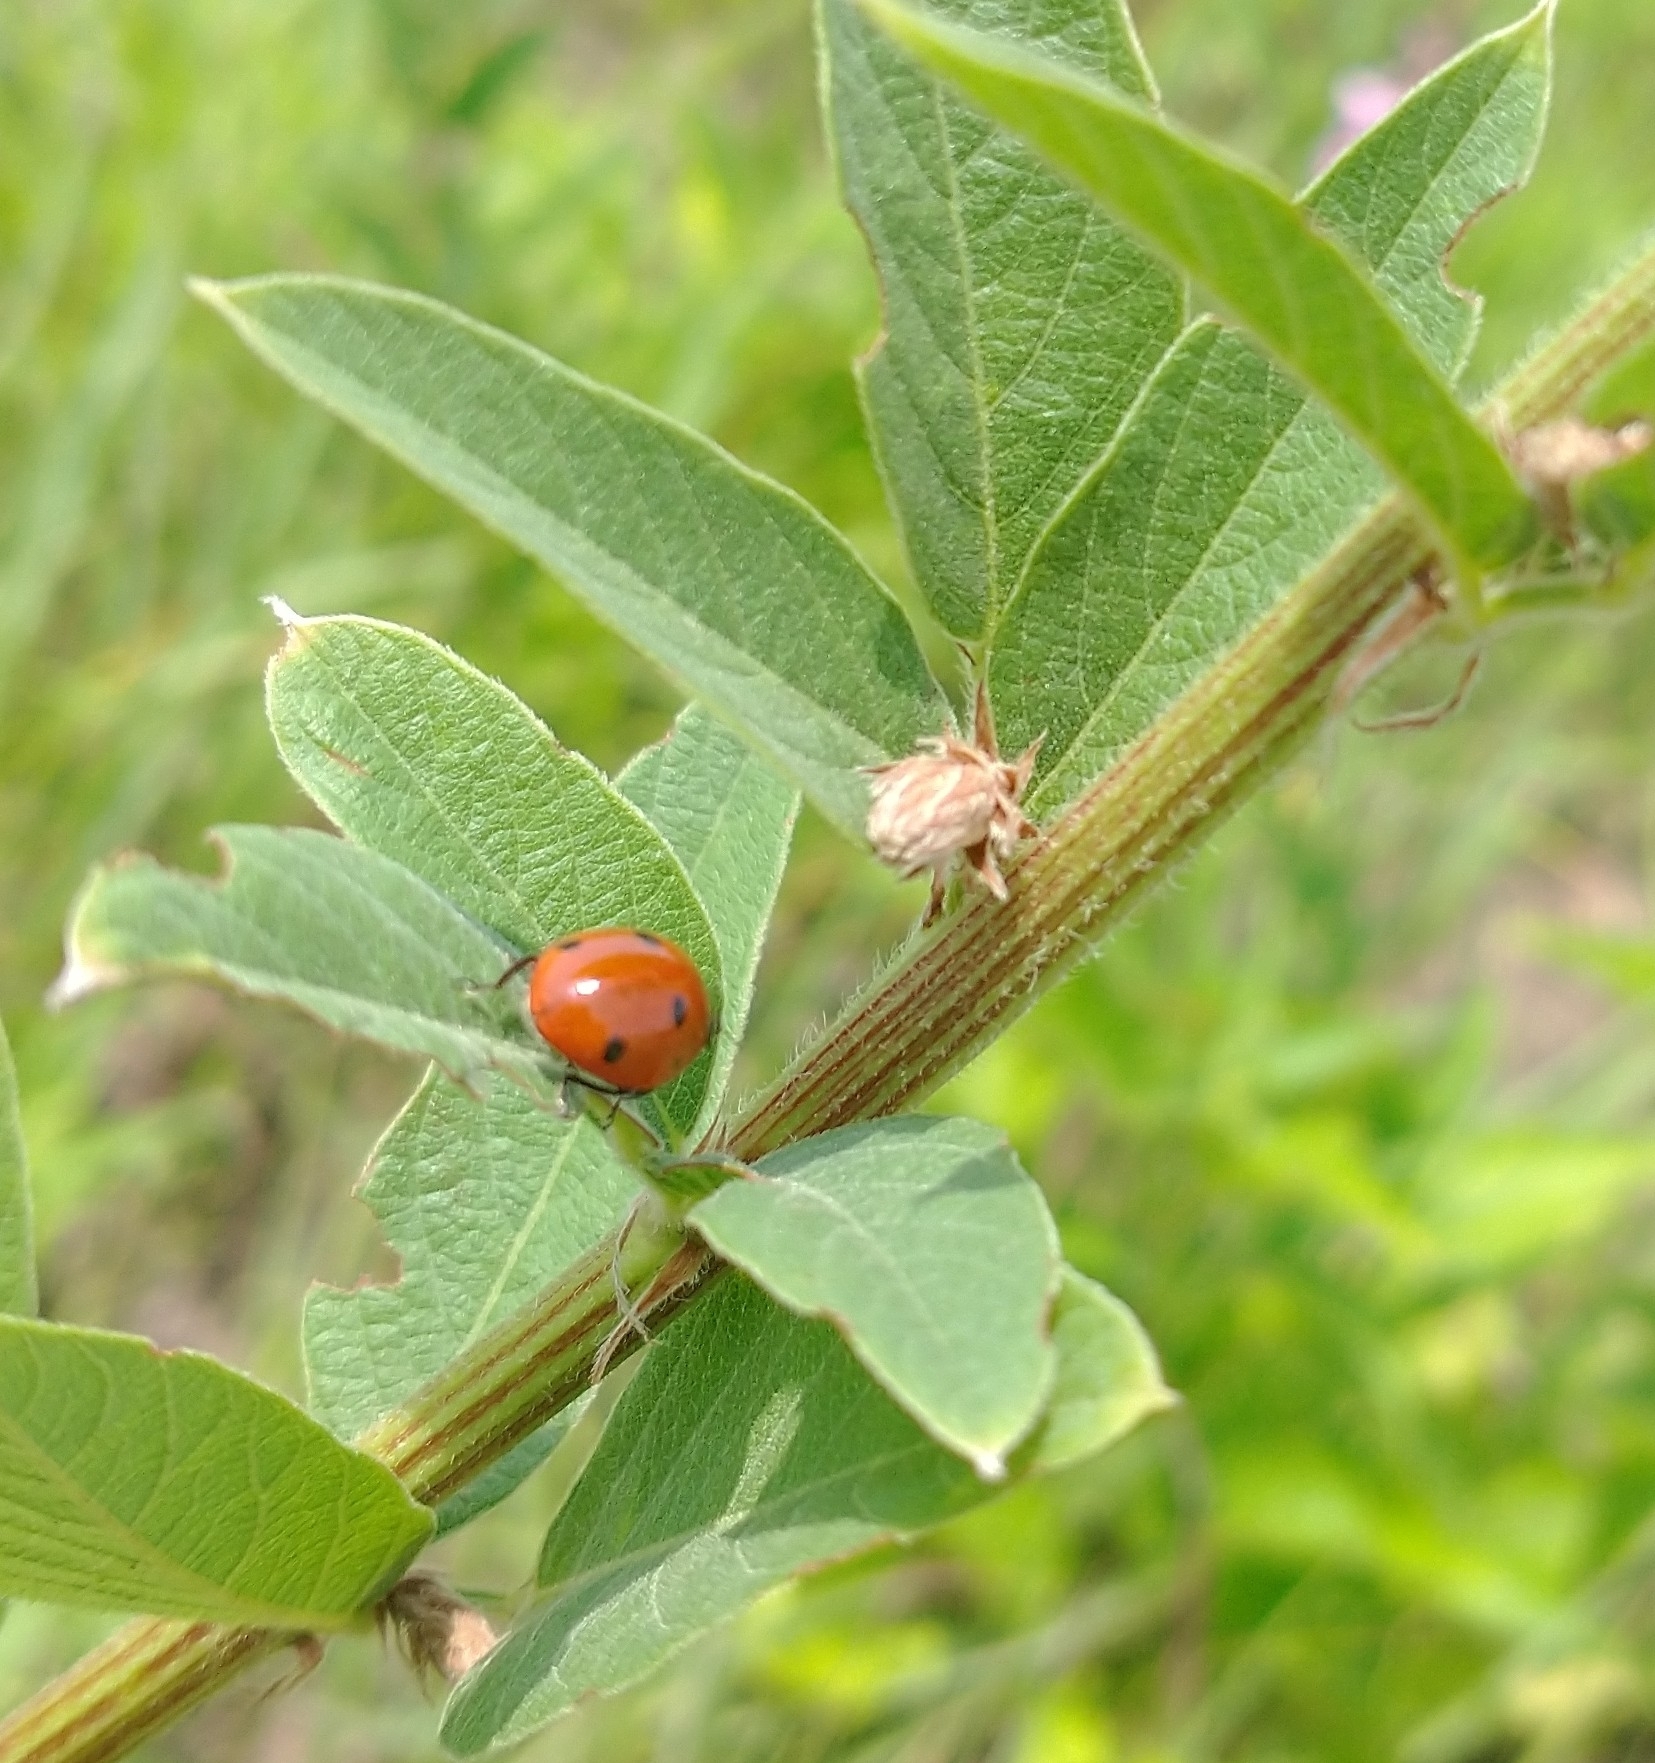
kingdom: Animalia
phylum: Arthropoda
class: Insecta
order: Coleoptera
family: Coccinellidae
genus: Coccinella
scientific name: Coccinella septempunctata
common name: Sevenspotted lady beetle
